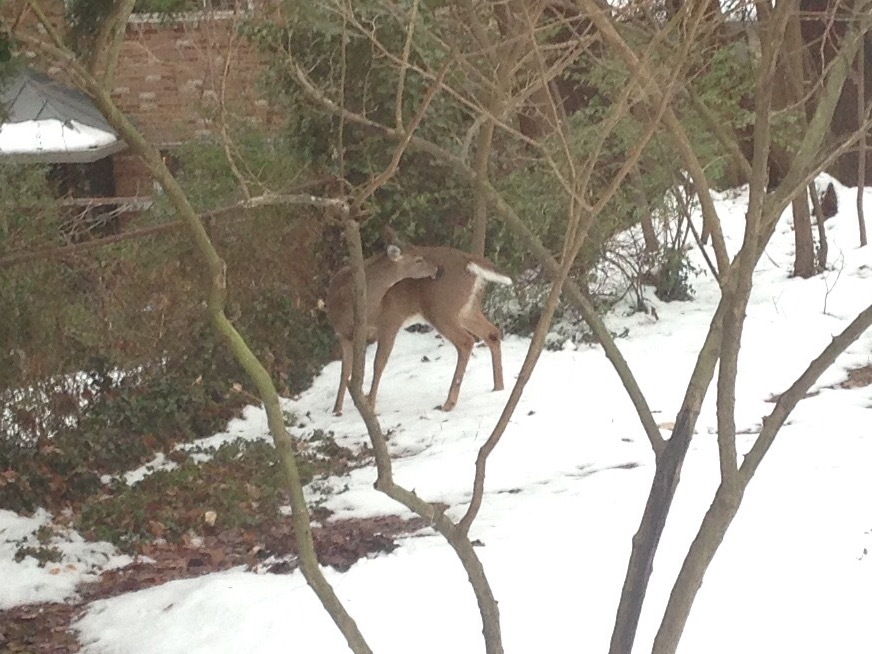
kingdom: Animalia
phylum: Chordata
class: Mammalia
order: Artiodactyla
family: Cervidae
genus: Odocoileus
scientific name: Odocoileus virginianus
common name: White-tailed deer
